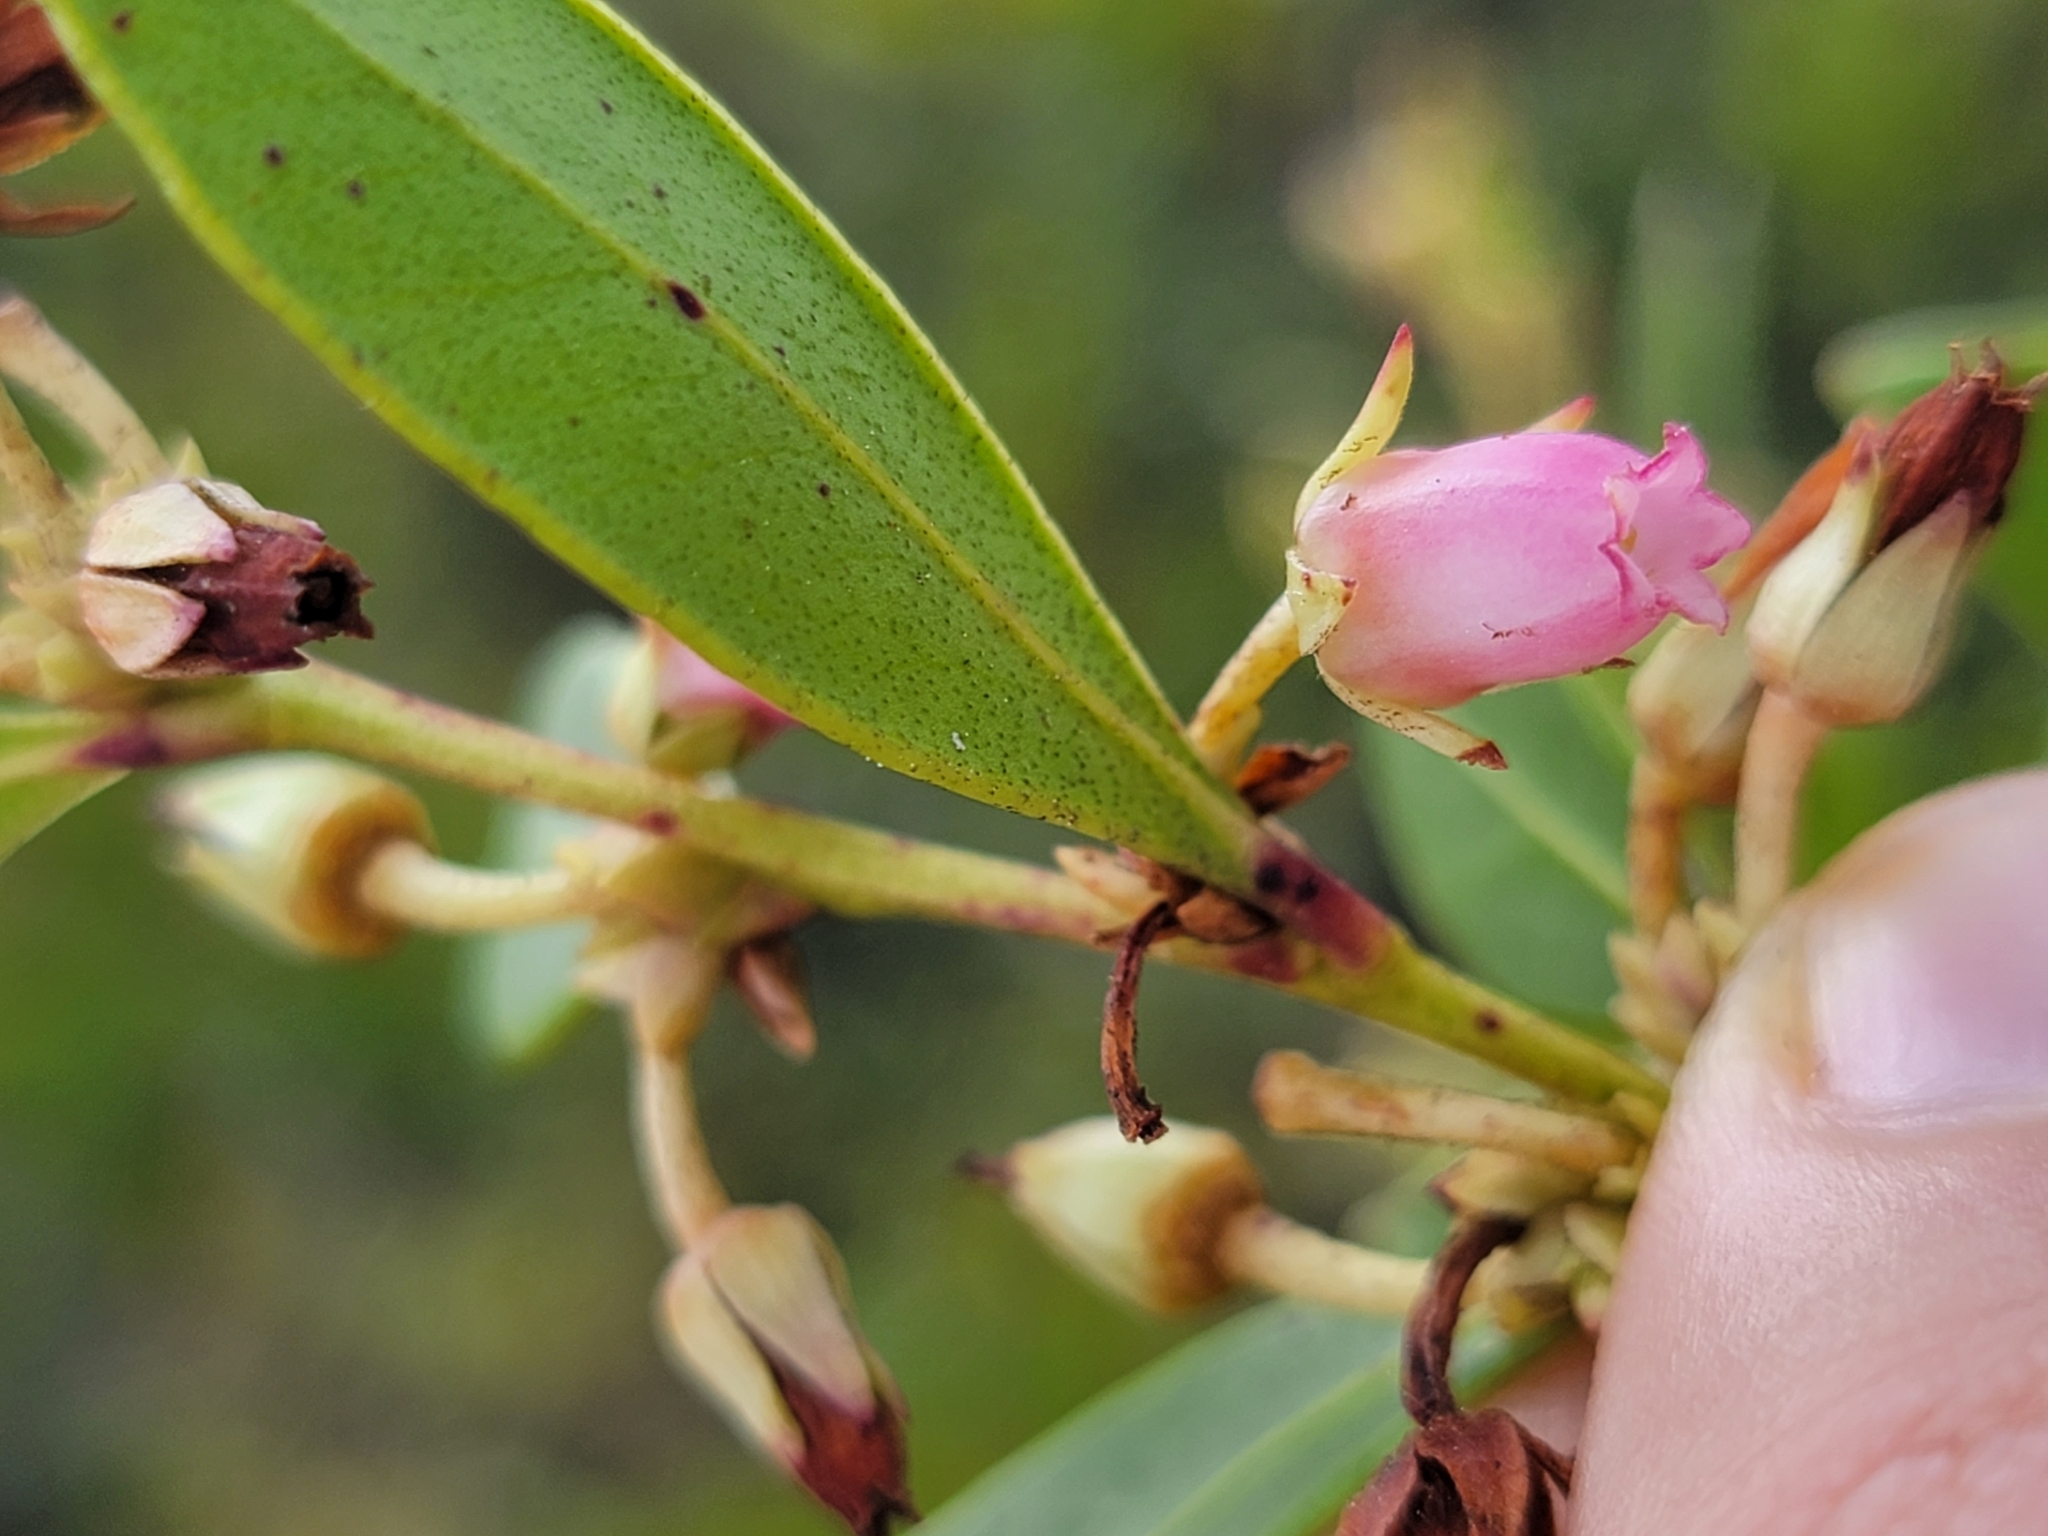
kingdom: Plantae
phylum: Tracheophyta
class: Magnoliopsida
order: Ericales
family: Ericaceae
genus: Lyonia
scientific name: Lyonia lucida
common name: Fetterbush
